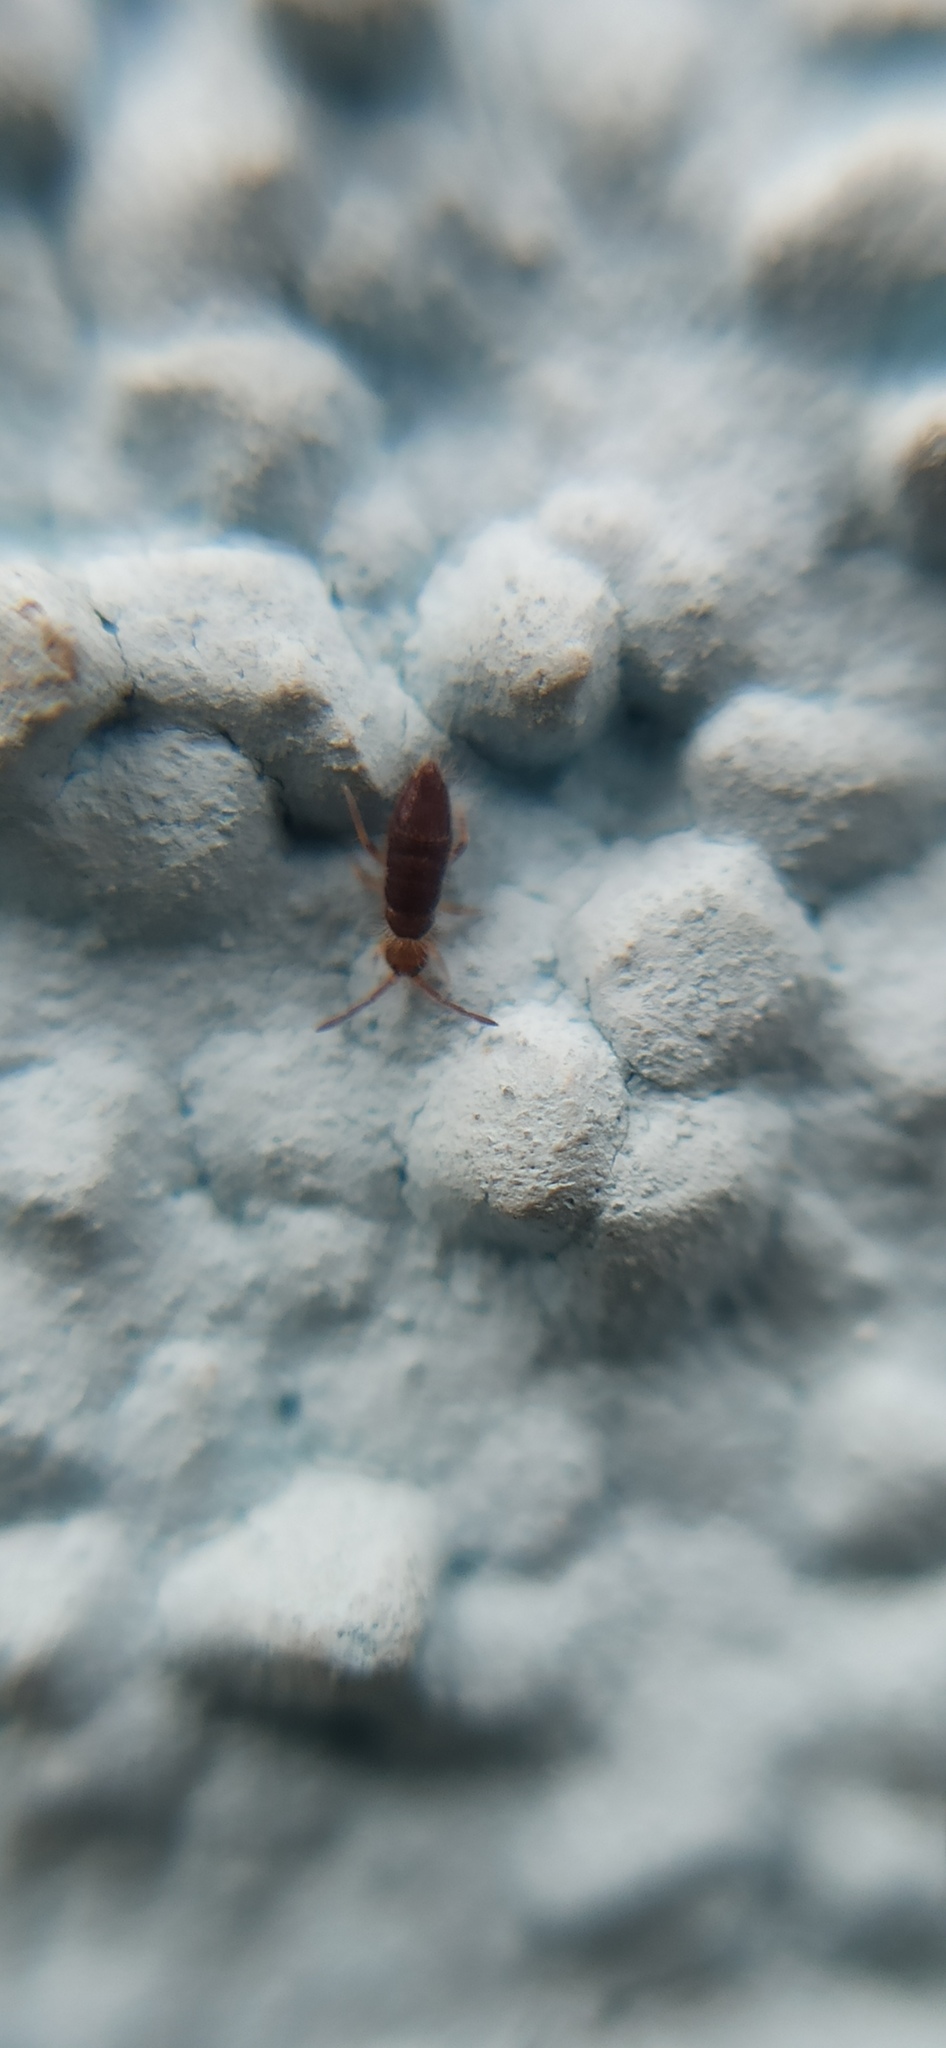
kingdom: Animalia
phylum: Arthropoda
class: Collembola
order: Entomobryomorpha
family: Entomobryidae
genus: Willowsia
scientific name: Willowsia buski
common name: Damp grain springtail
